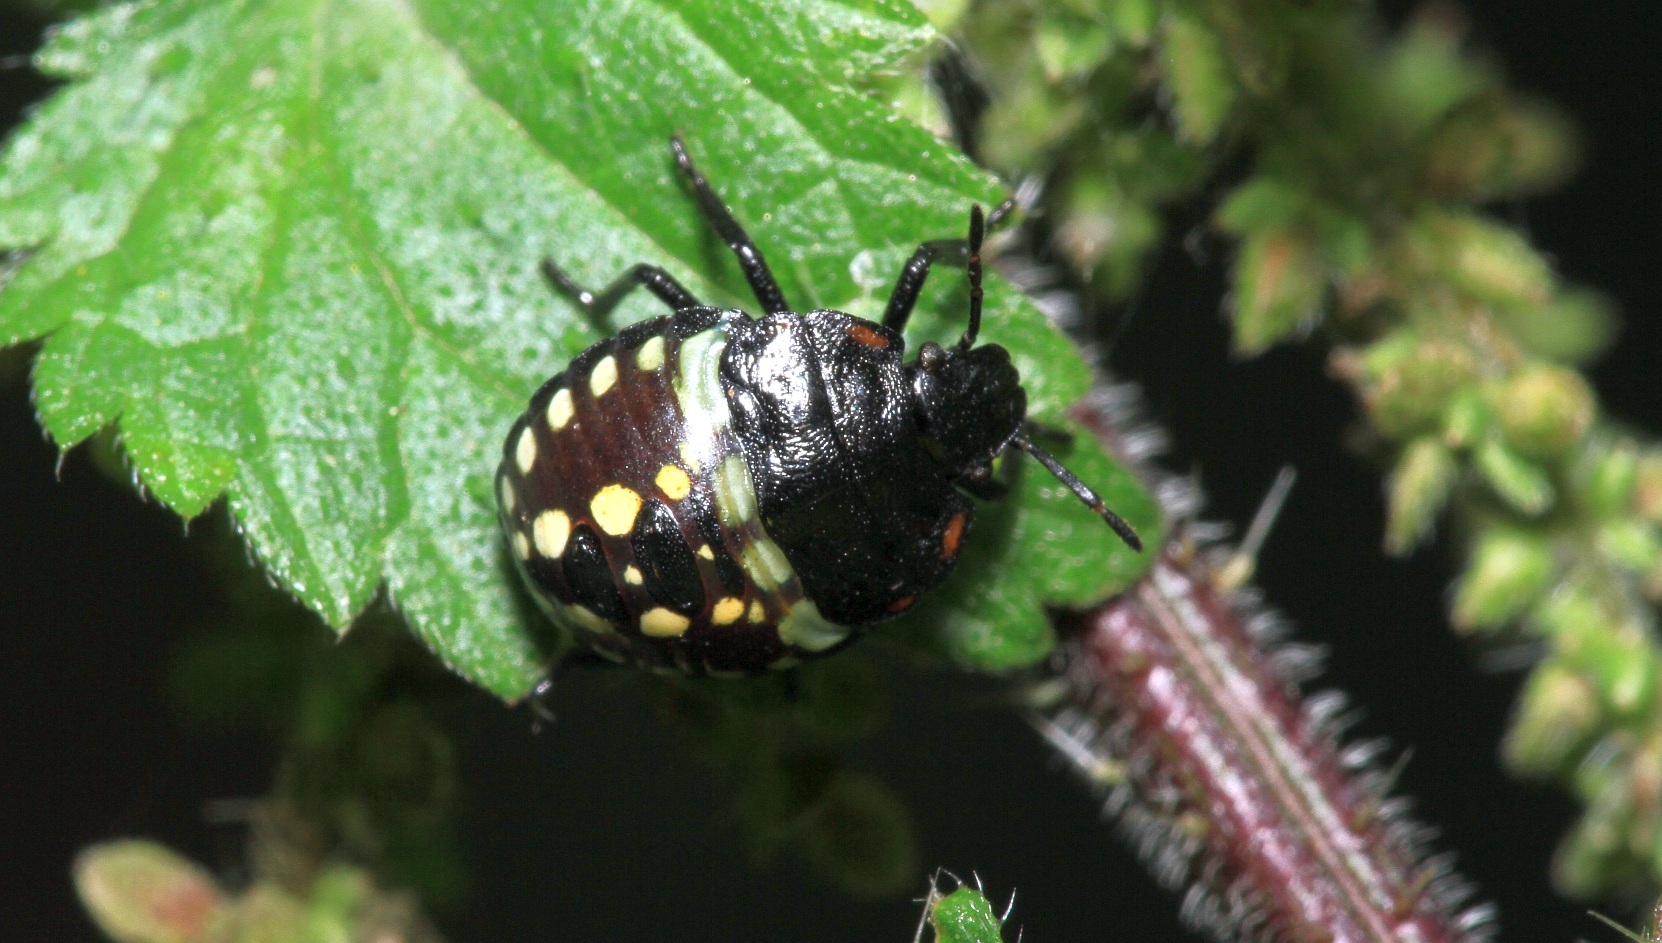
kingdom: Animalia
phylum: Arthropoda
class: Insecta
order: Hemiptera
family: Pentatomidae
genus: Nezara
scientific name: Nezara viridula
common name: Southern green stink bug
